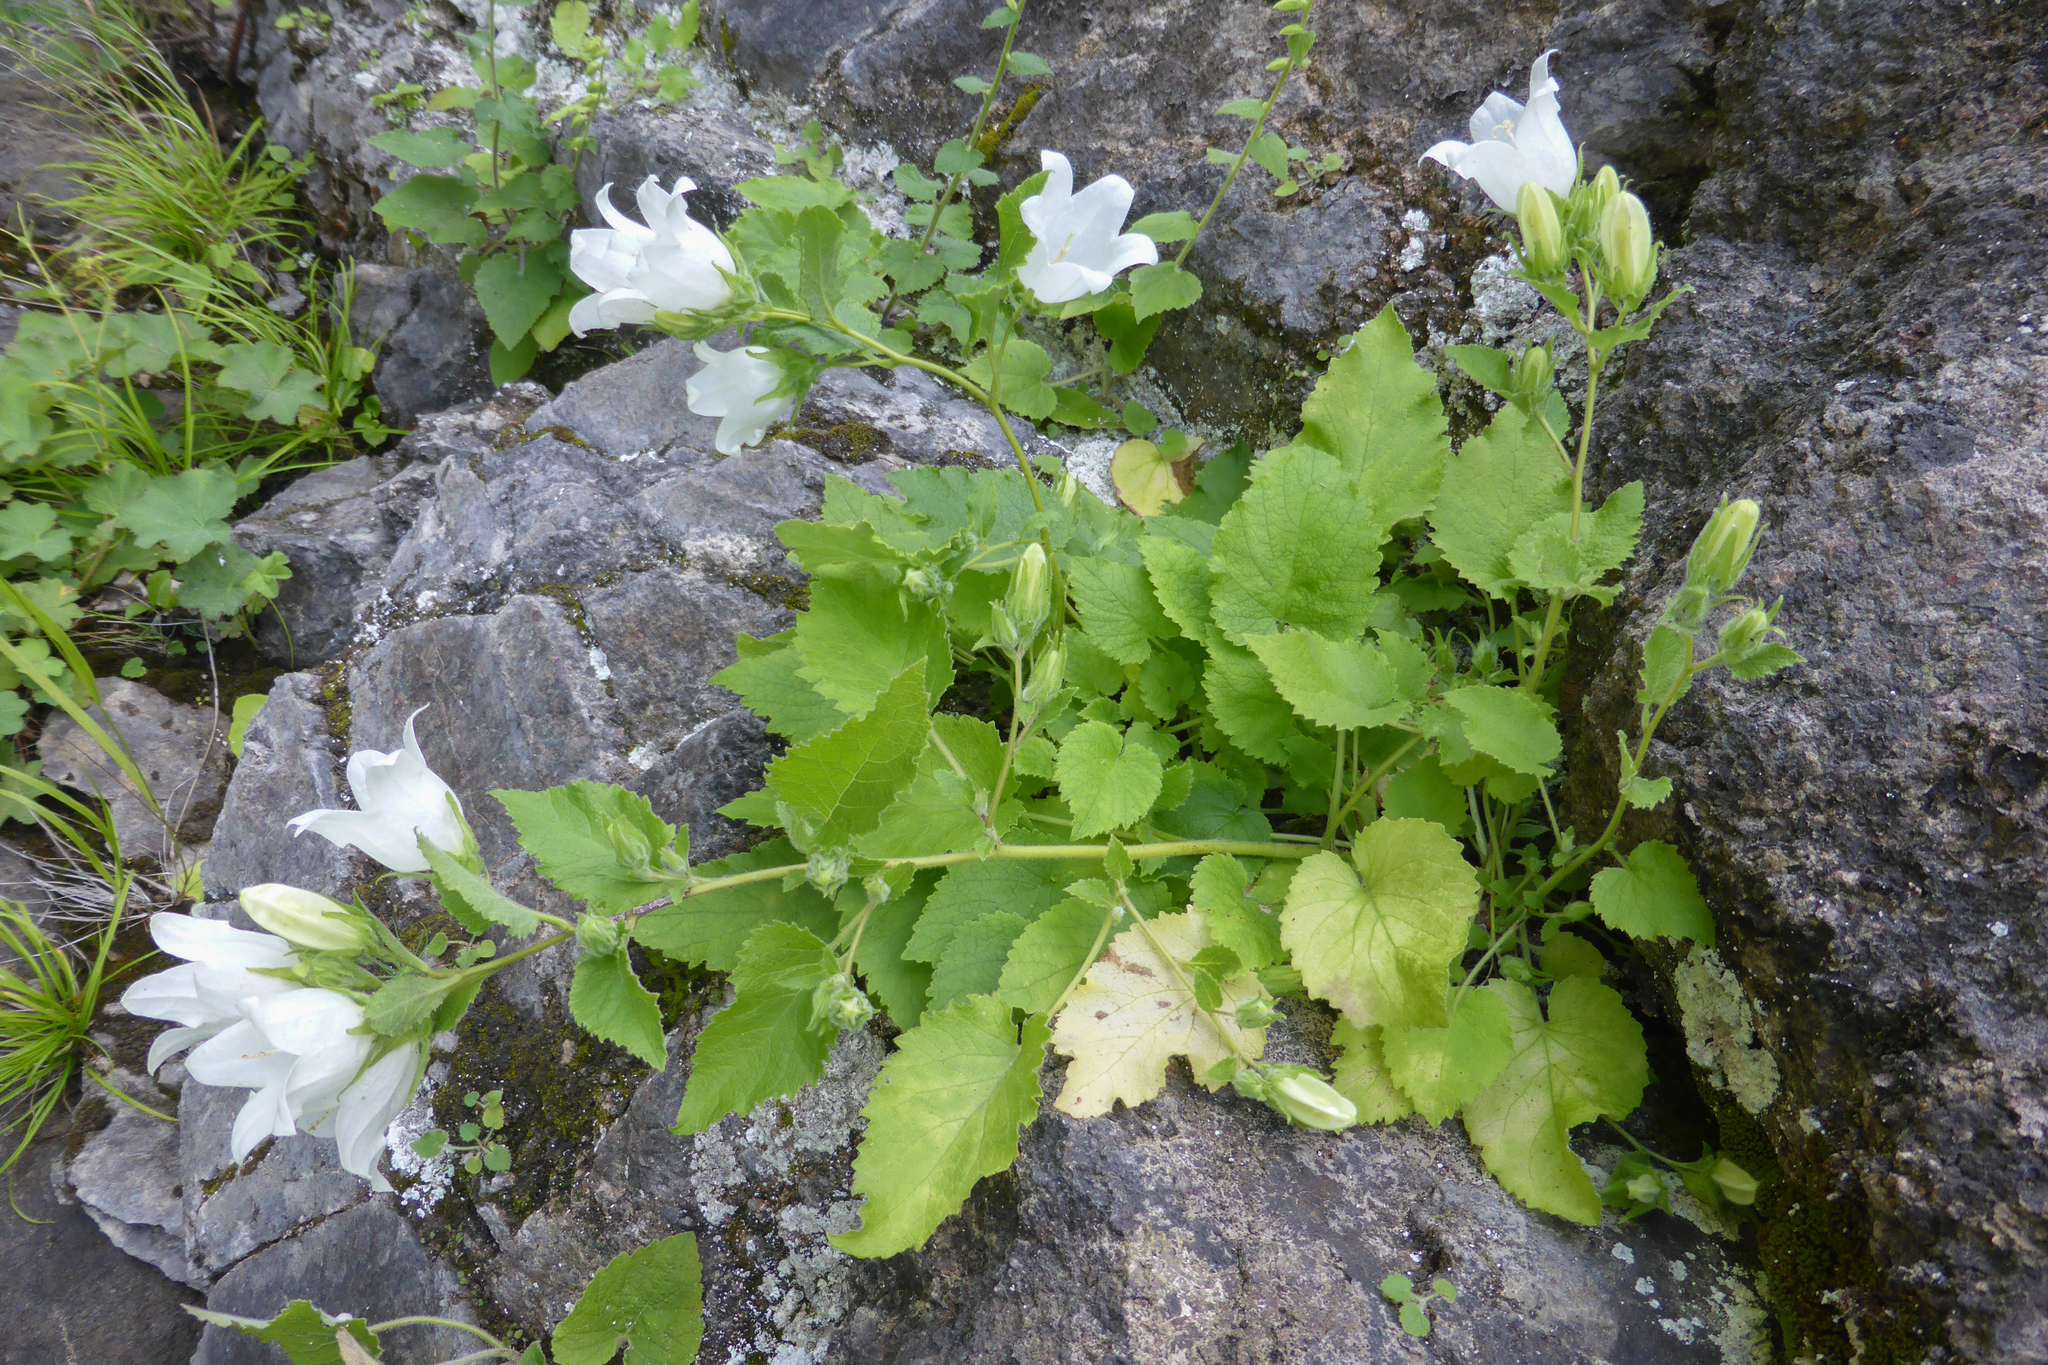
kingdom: Plantae
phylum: Tracheophyta
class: Magnoliopsida
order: Asterales
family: Campanulaceae
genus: Campanula
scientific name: Campanula pendula
